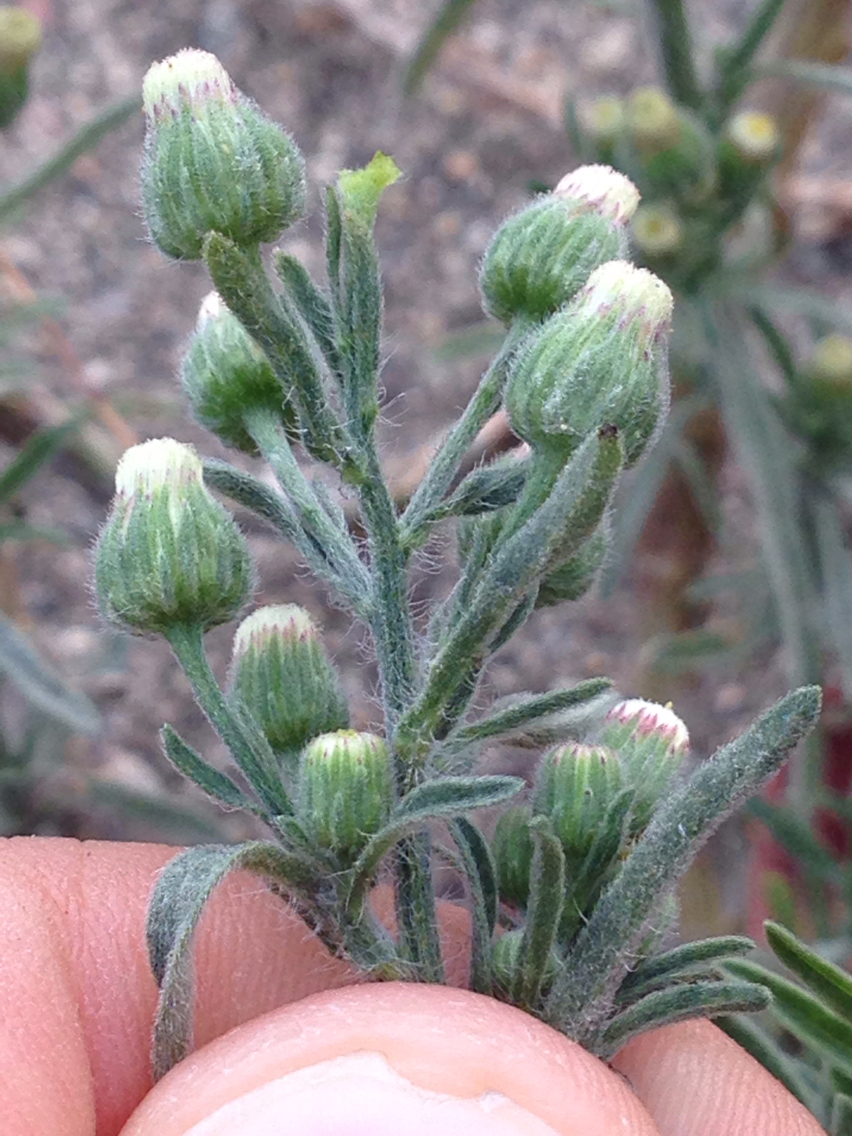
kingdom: Plantae
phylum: Tracheophyta
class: Magnoliopsida
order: Asterales
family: Asteraceae
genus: Erigeron
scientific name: Erigeron bonariensis
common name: Argentine fleabane
